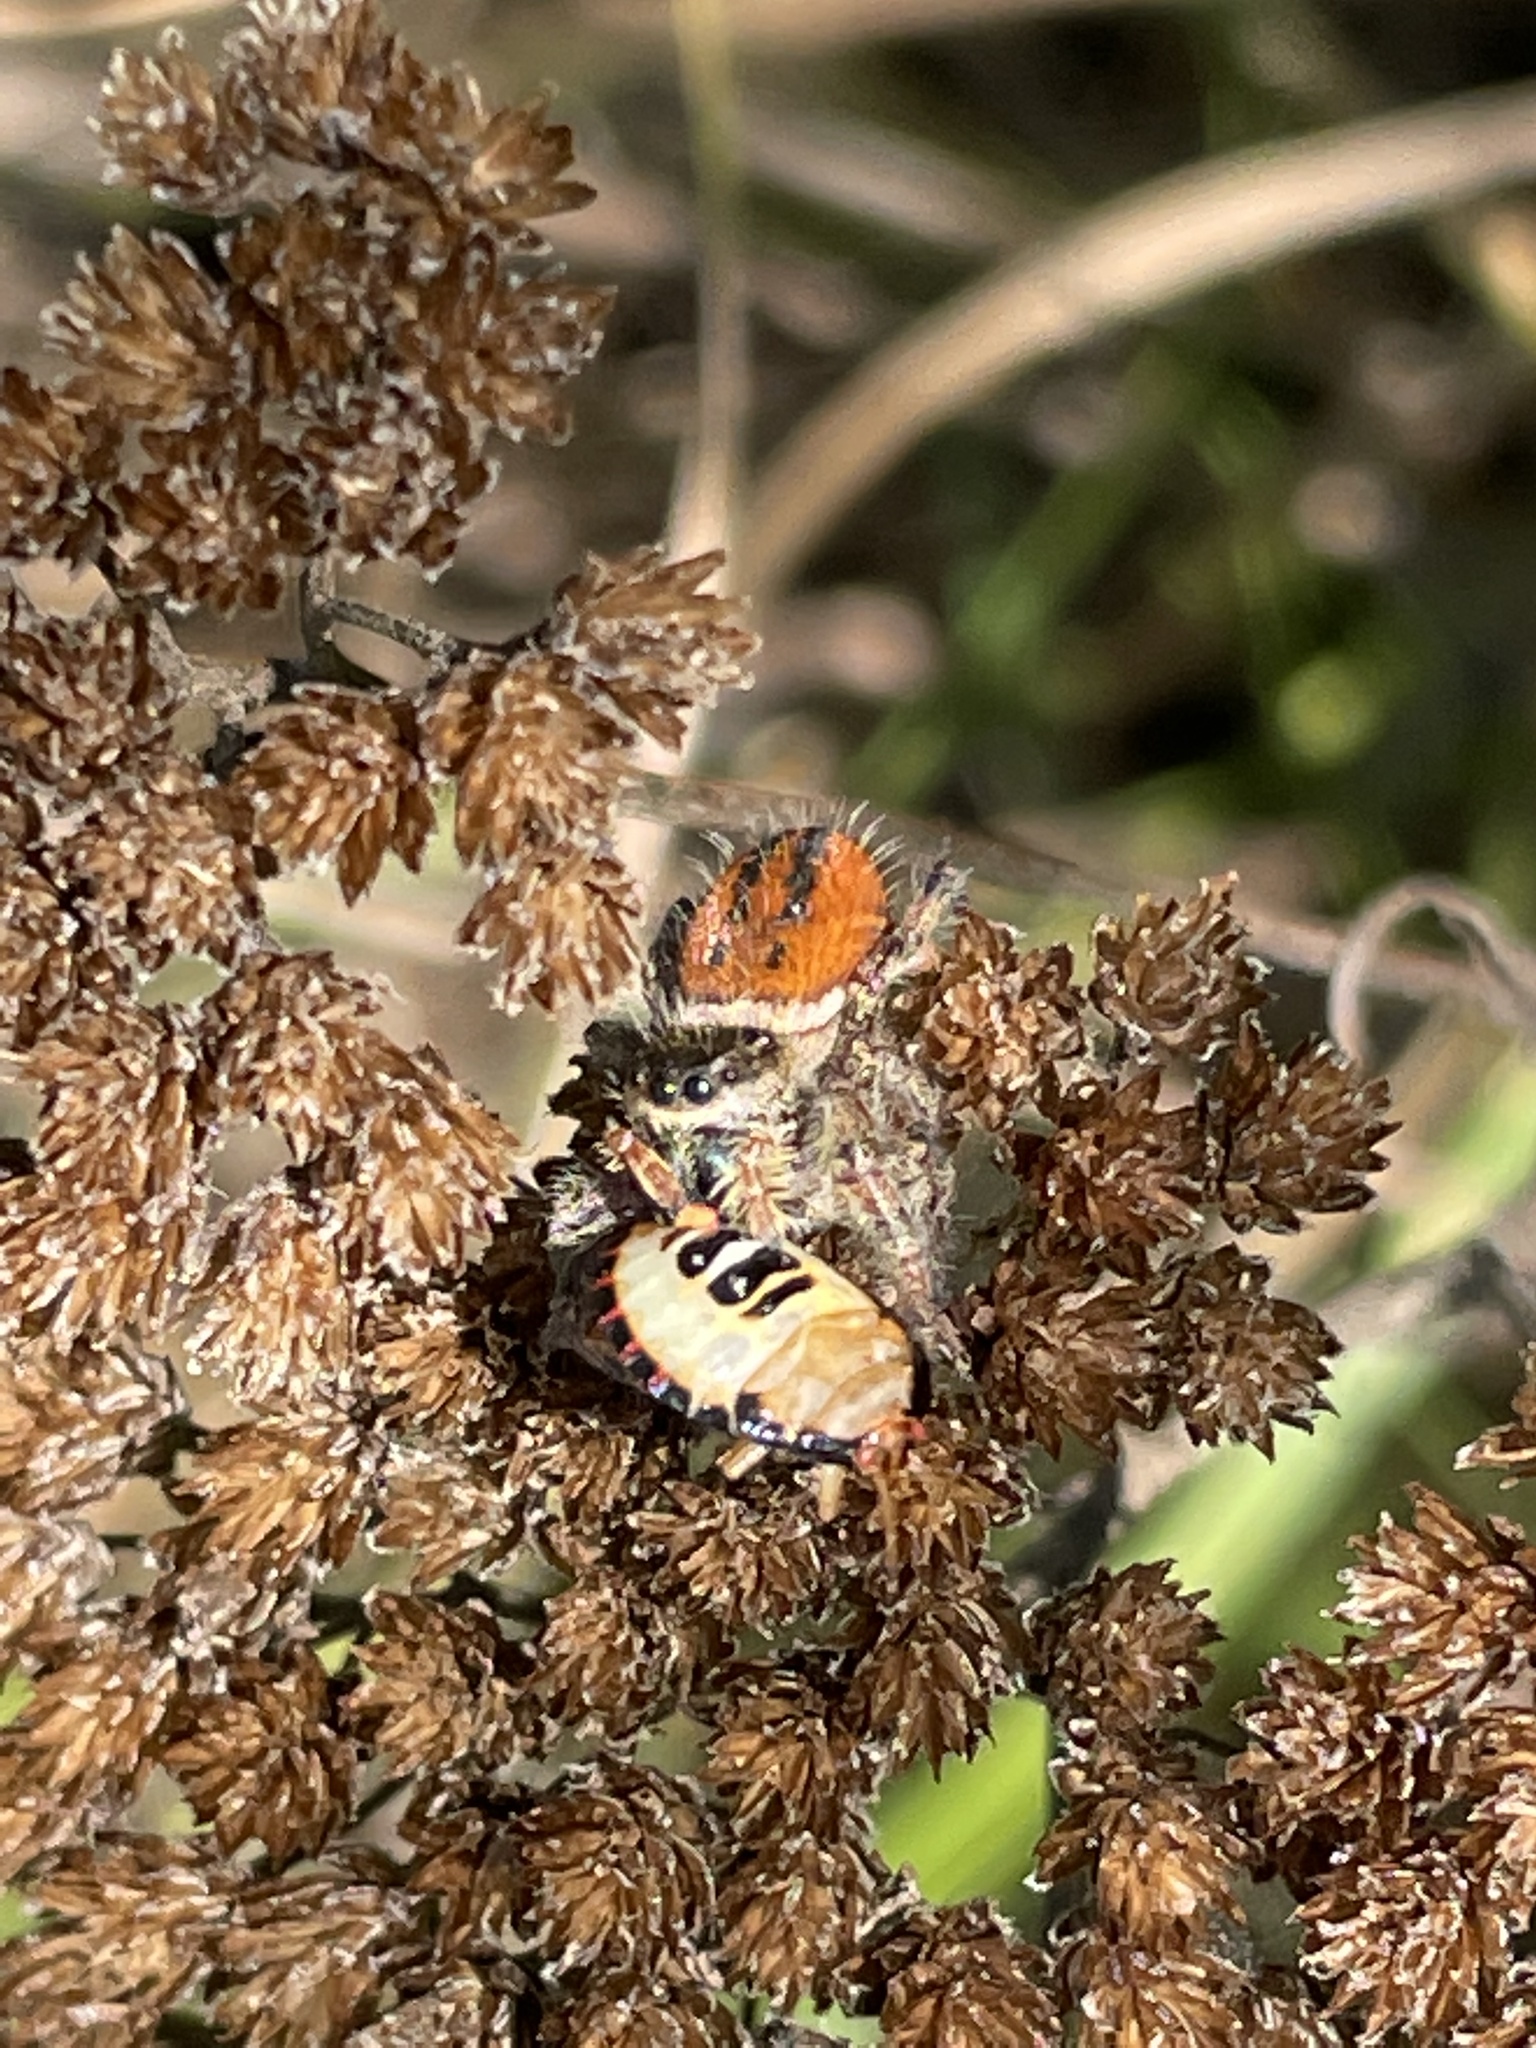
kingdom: Animalia
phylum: Arthropoda
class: Arachnida
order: Araneae
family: Salticidae
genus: Phidippus
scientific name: Phidippus clarus
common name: Brilliant jumping spider
